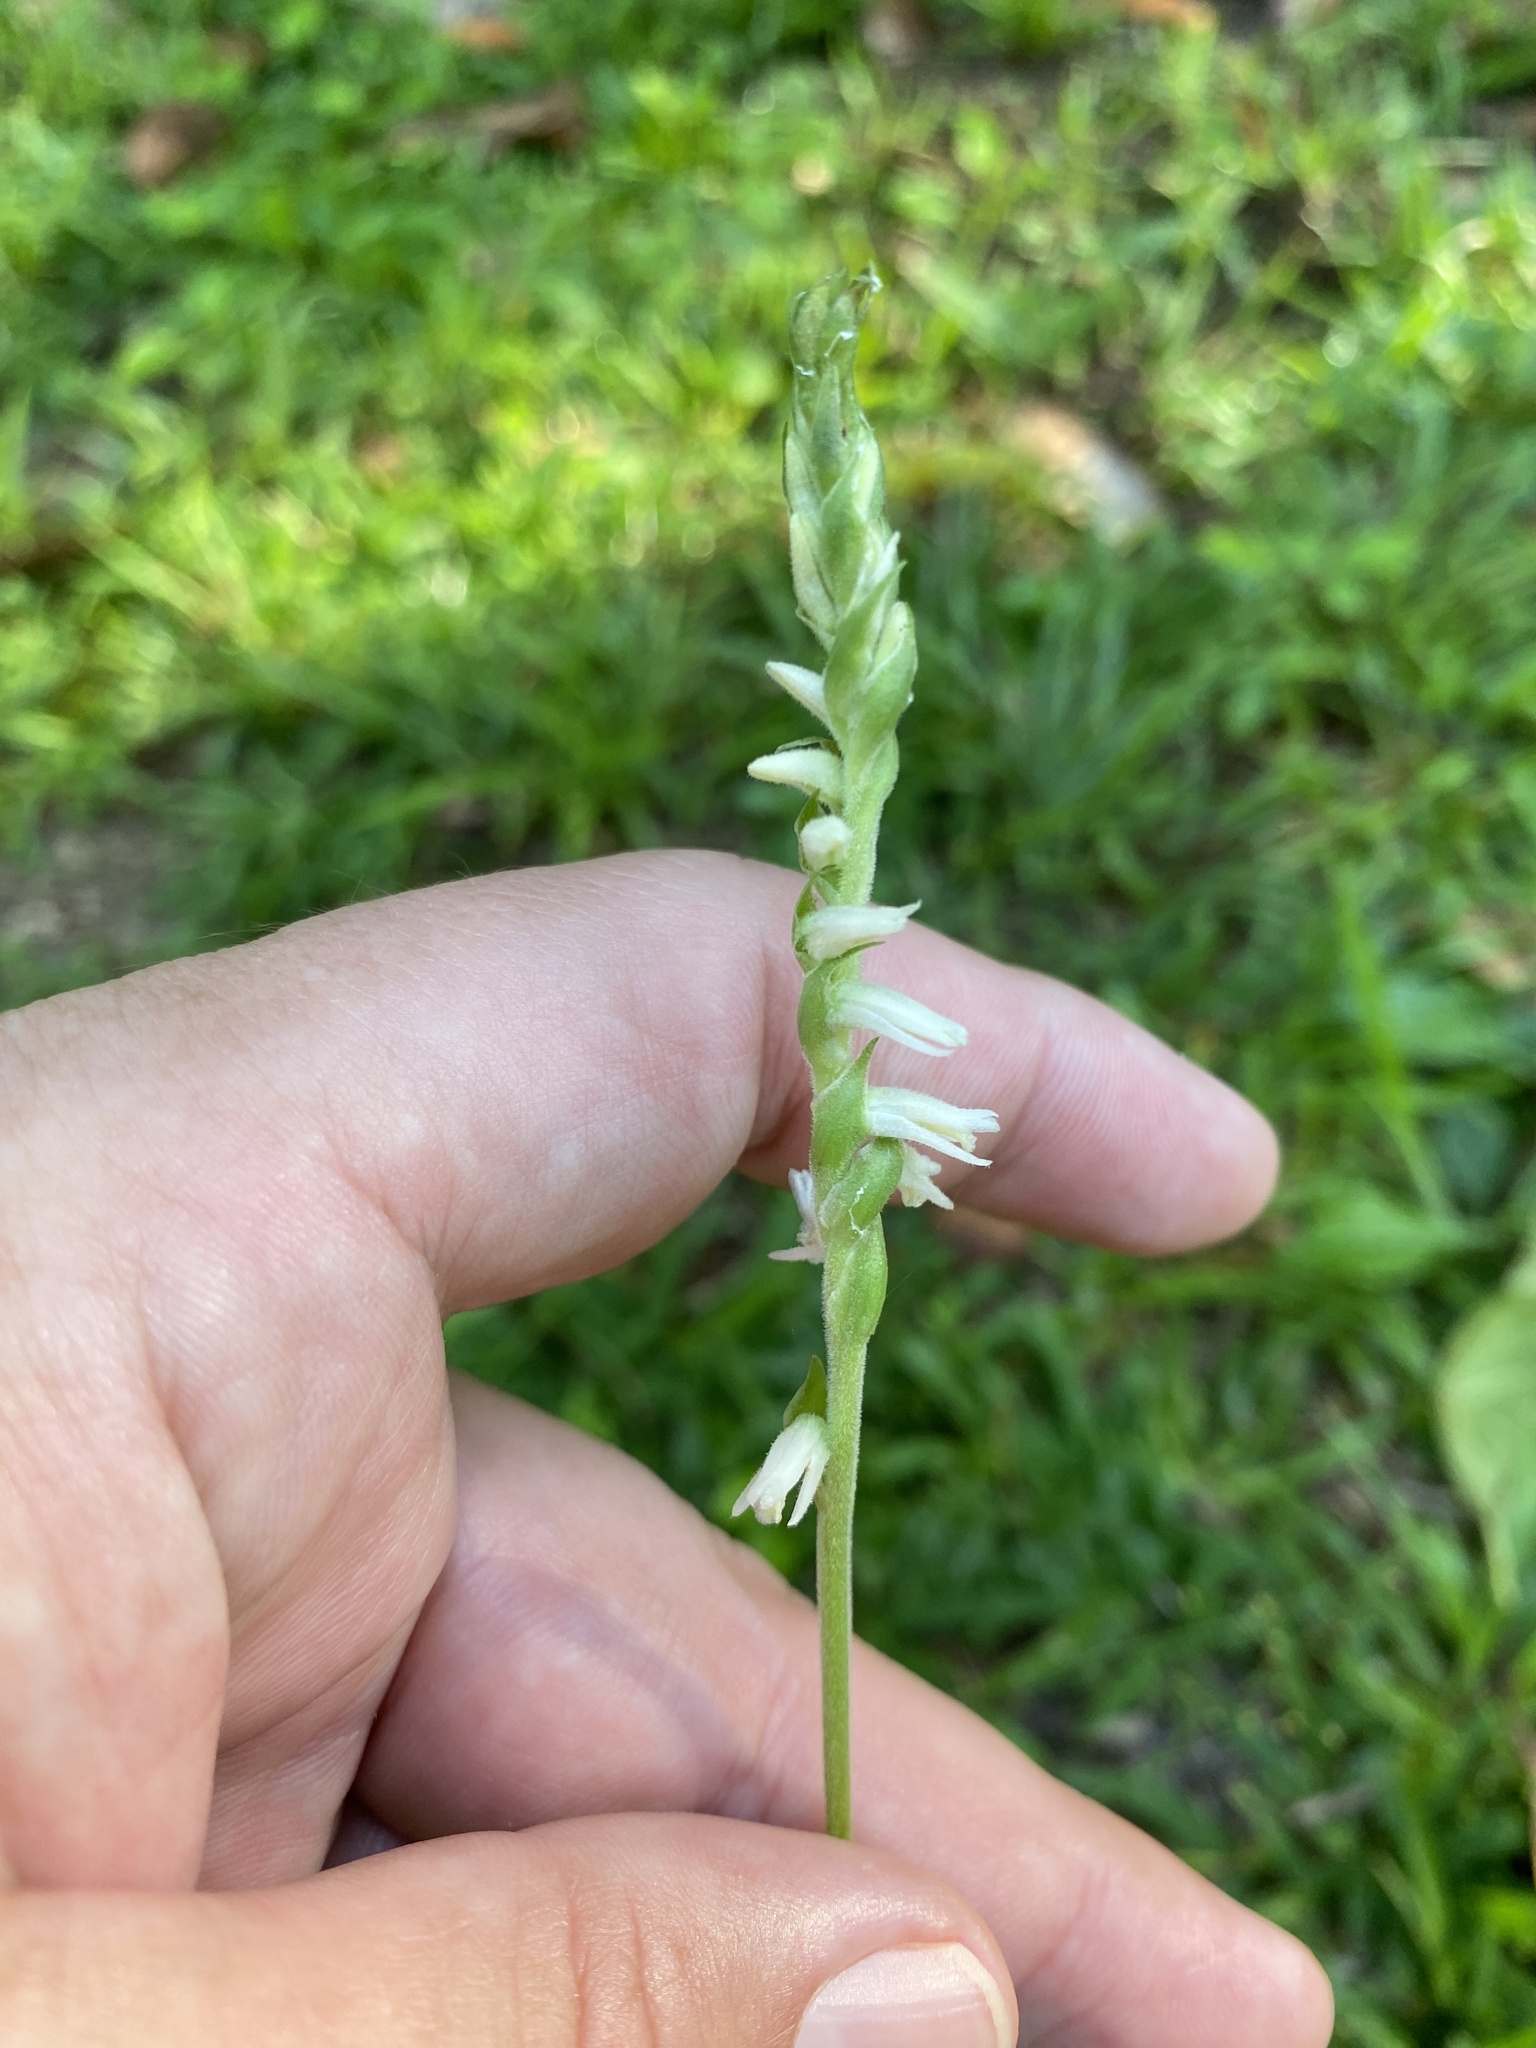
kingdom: Plantae
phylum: Tracheophyta
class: Liliopsida
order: Asparagales
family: Orchidaceae
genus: Spiranthes
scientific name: Spiranthes vernalis
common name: Spring ladies'-tresses
